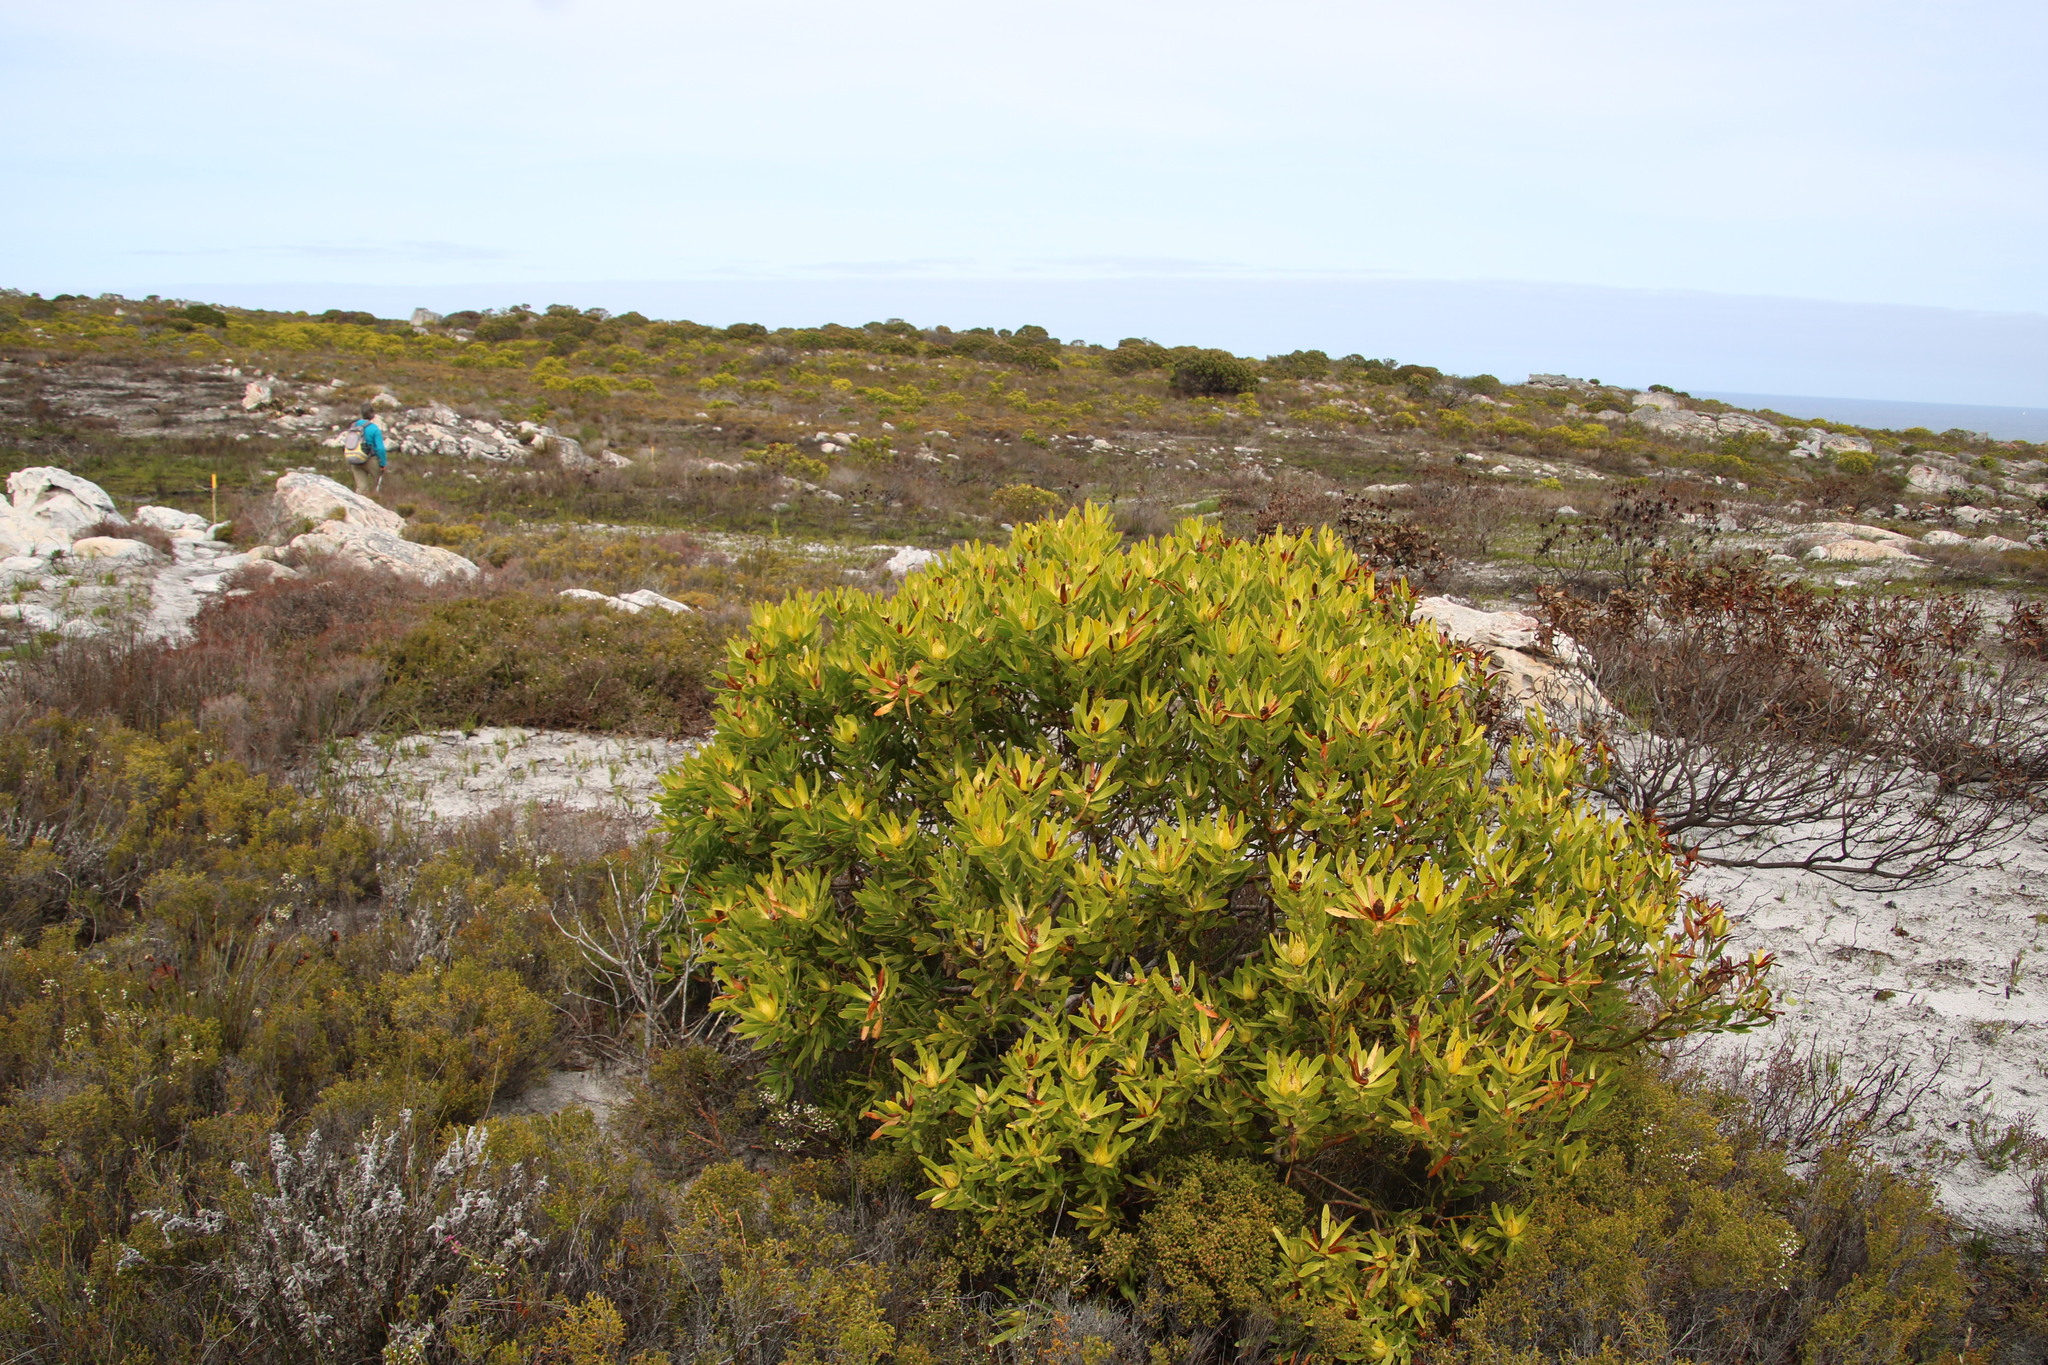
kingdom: Plantae
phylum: Tracheophyta
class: Magnoliopsida
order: Proteales
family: Proteaceae
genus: Leucadendron
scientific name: Leucadendron laureolum
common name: Golden sunshinebush
